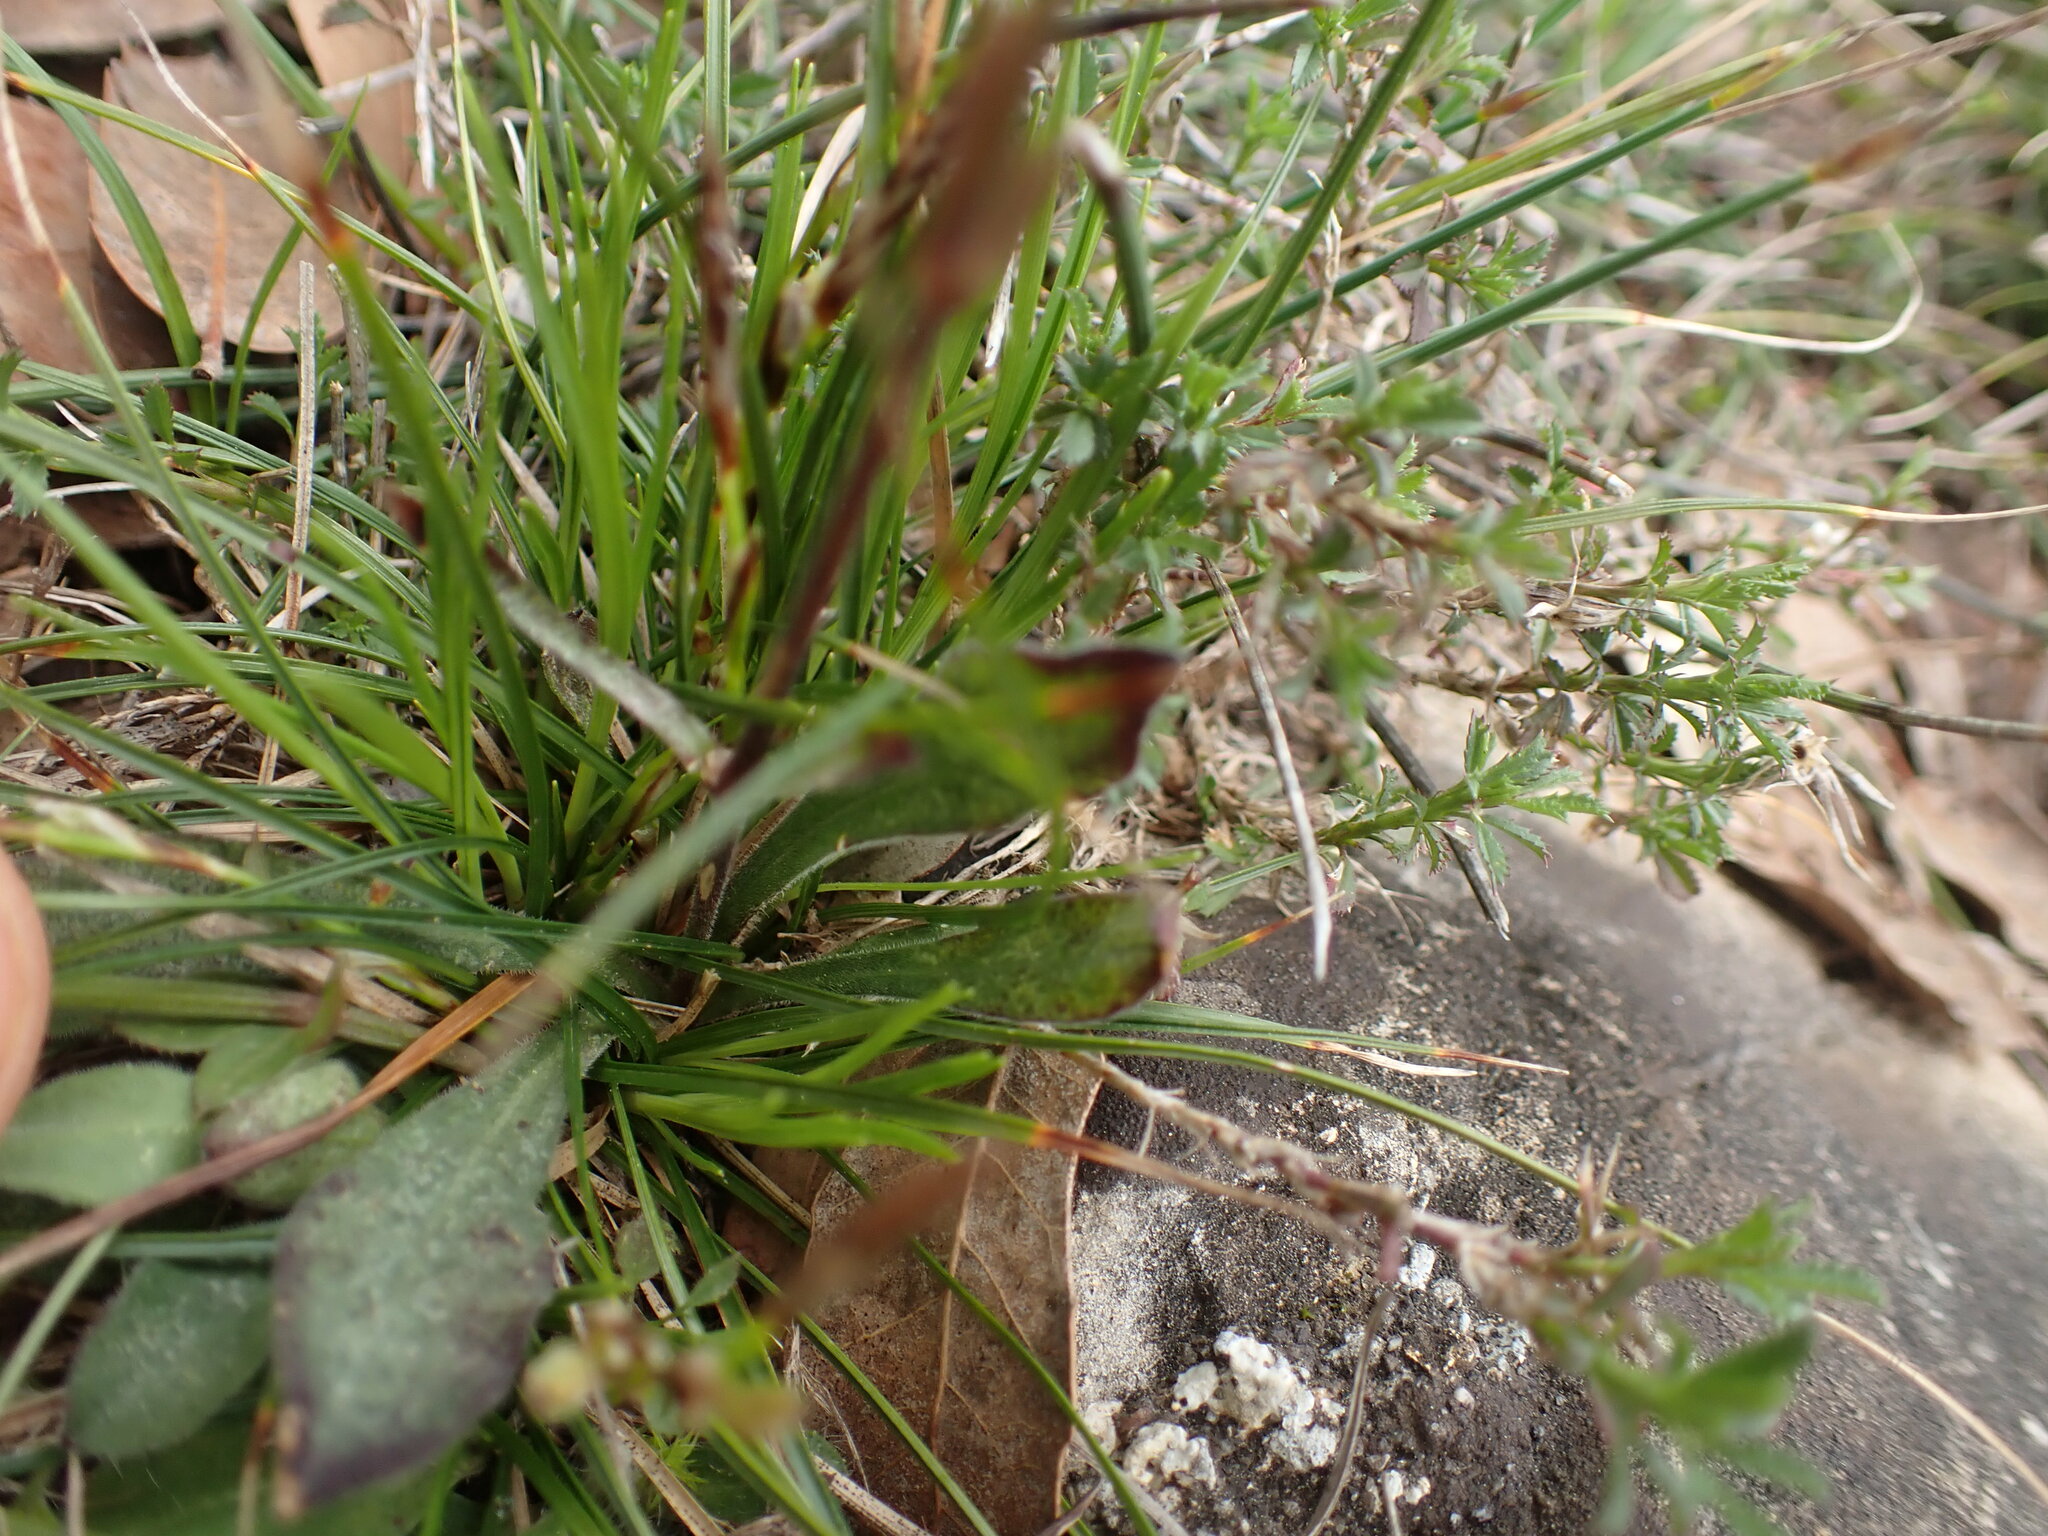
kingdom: Plantae
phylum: Tracheophyta
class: Magnoliopsida
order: Caryophyllales
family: Caryophyllaceae
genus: Silene
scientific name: Silene italica
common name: Italian catchfly
